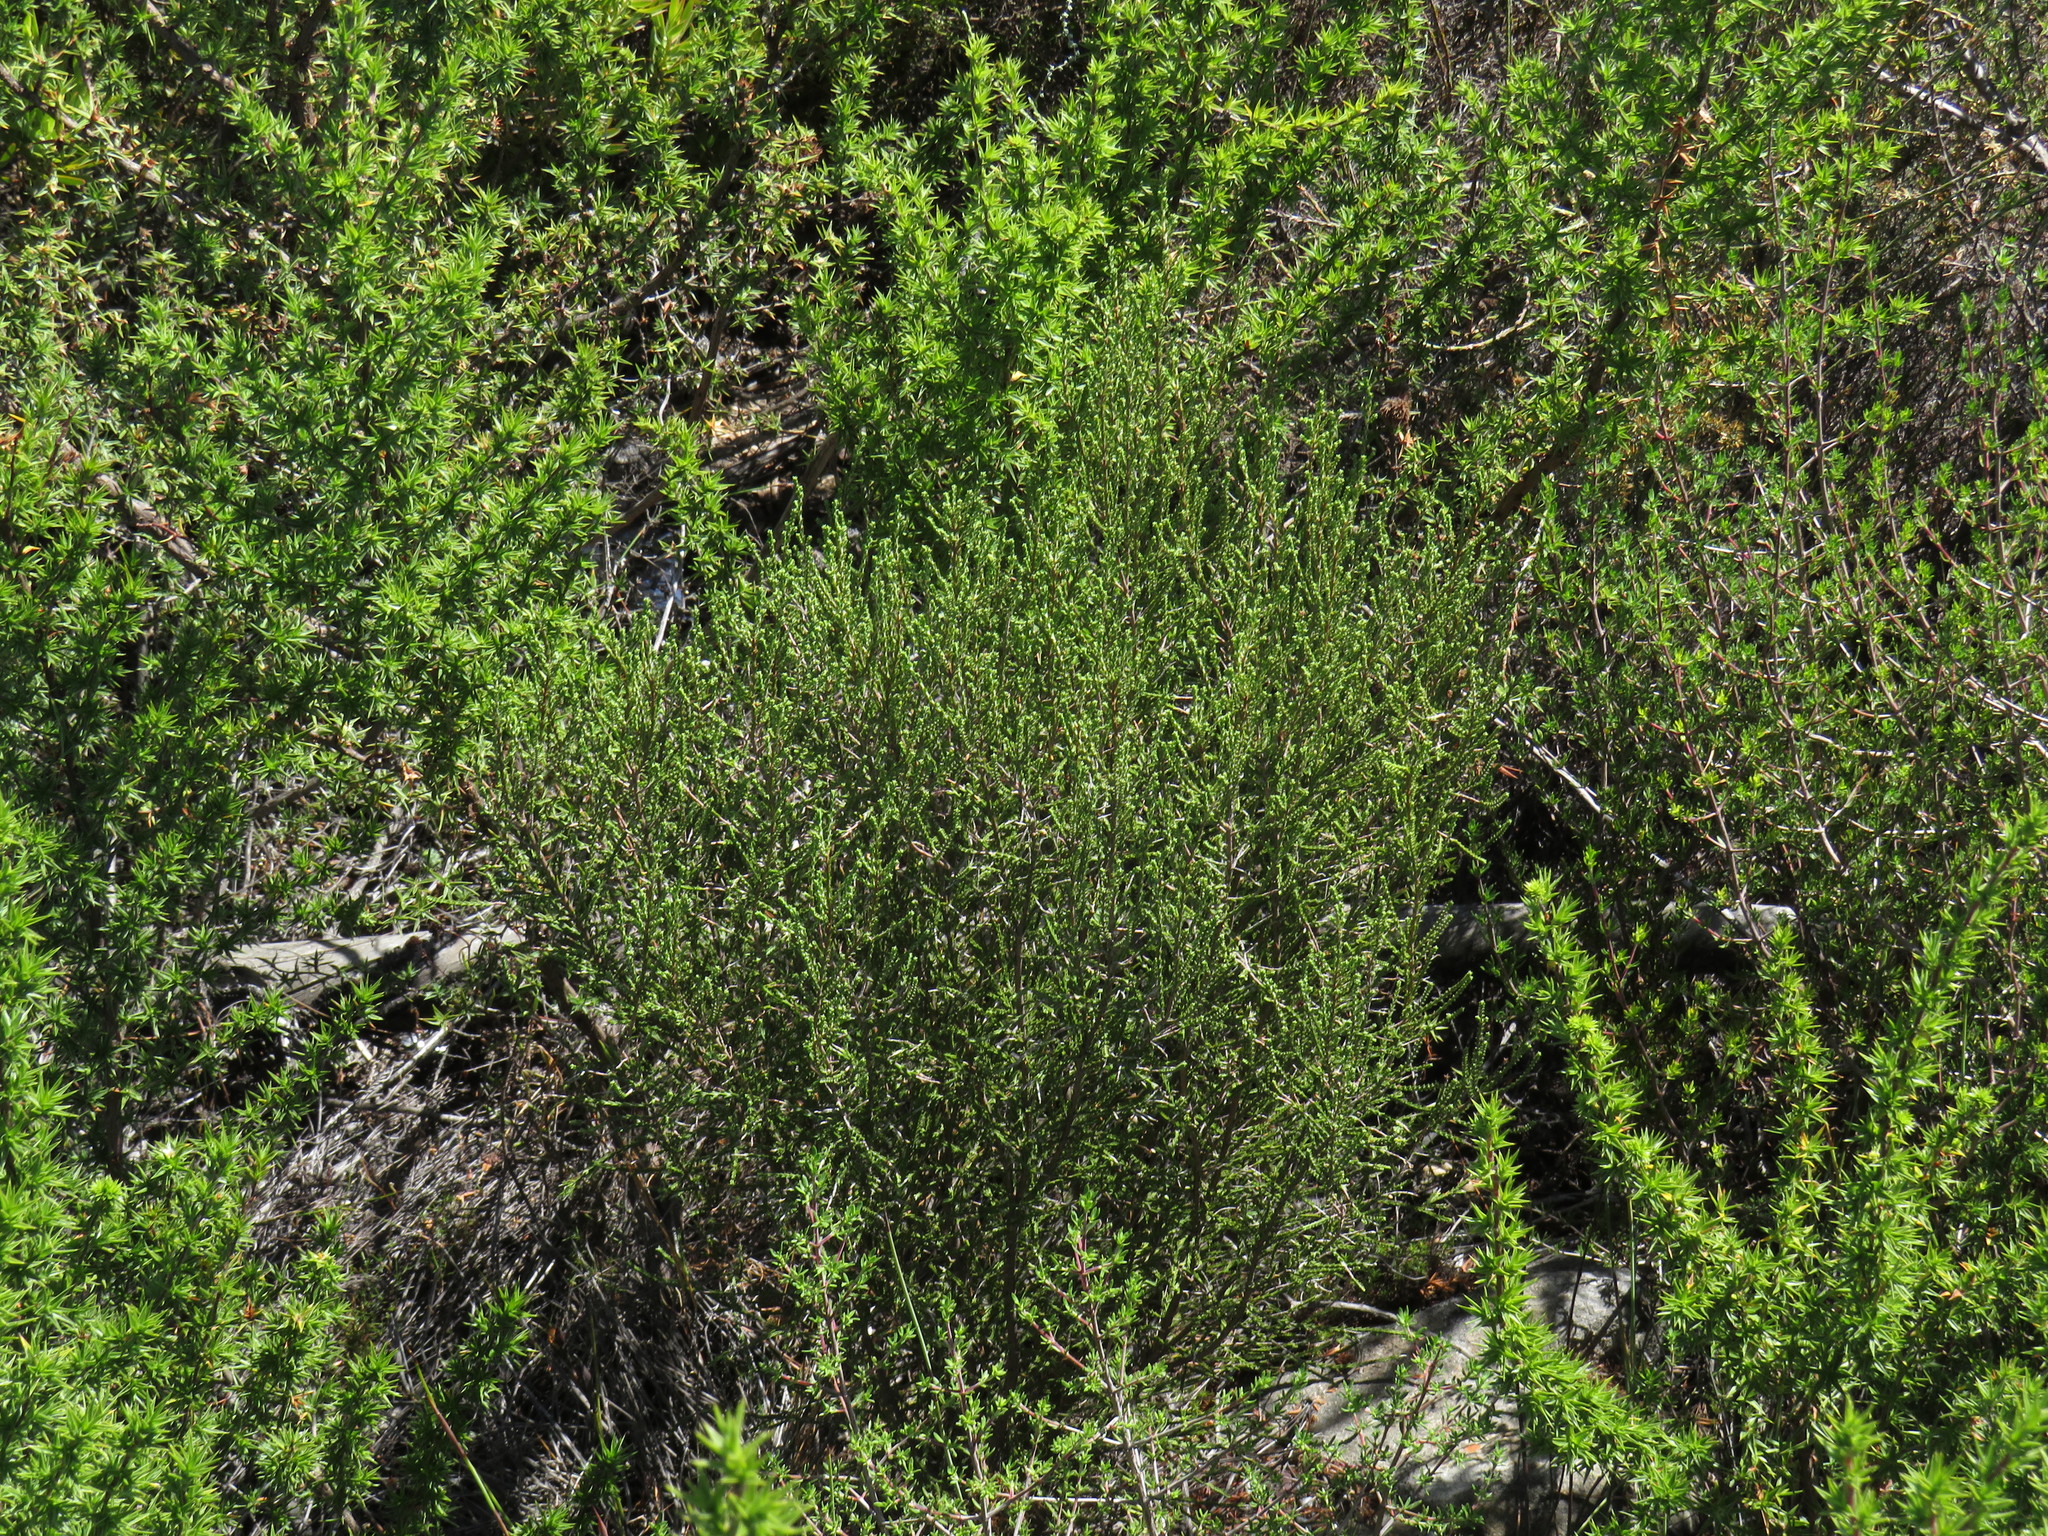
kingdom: Plantae
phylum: Tracheophyta
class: Magnoliopsida
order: Malvales
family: Thymelaeaceae
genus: Passerina
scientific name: Passerina truncata
